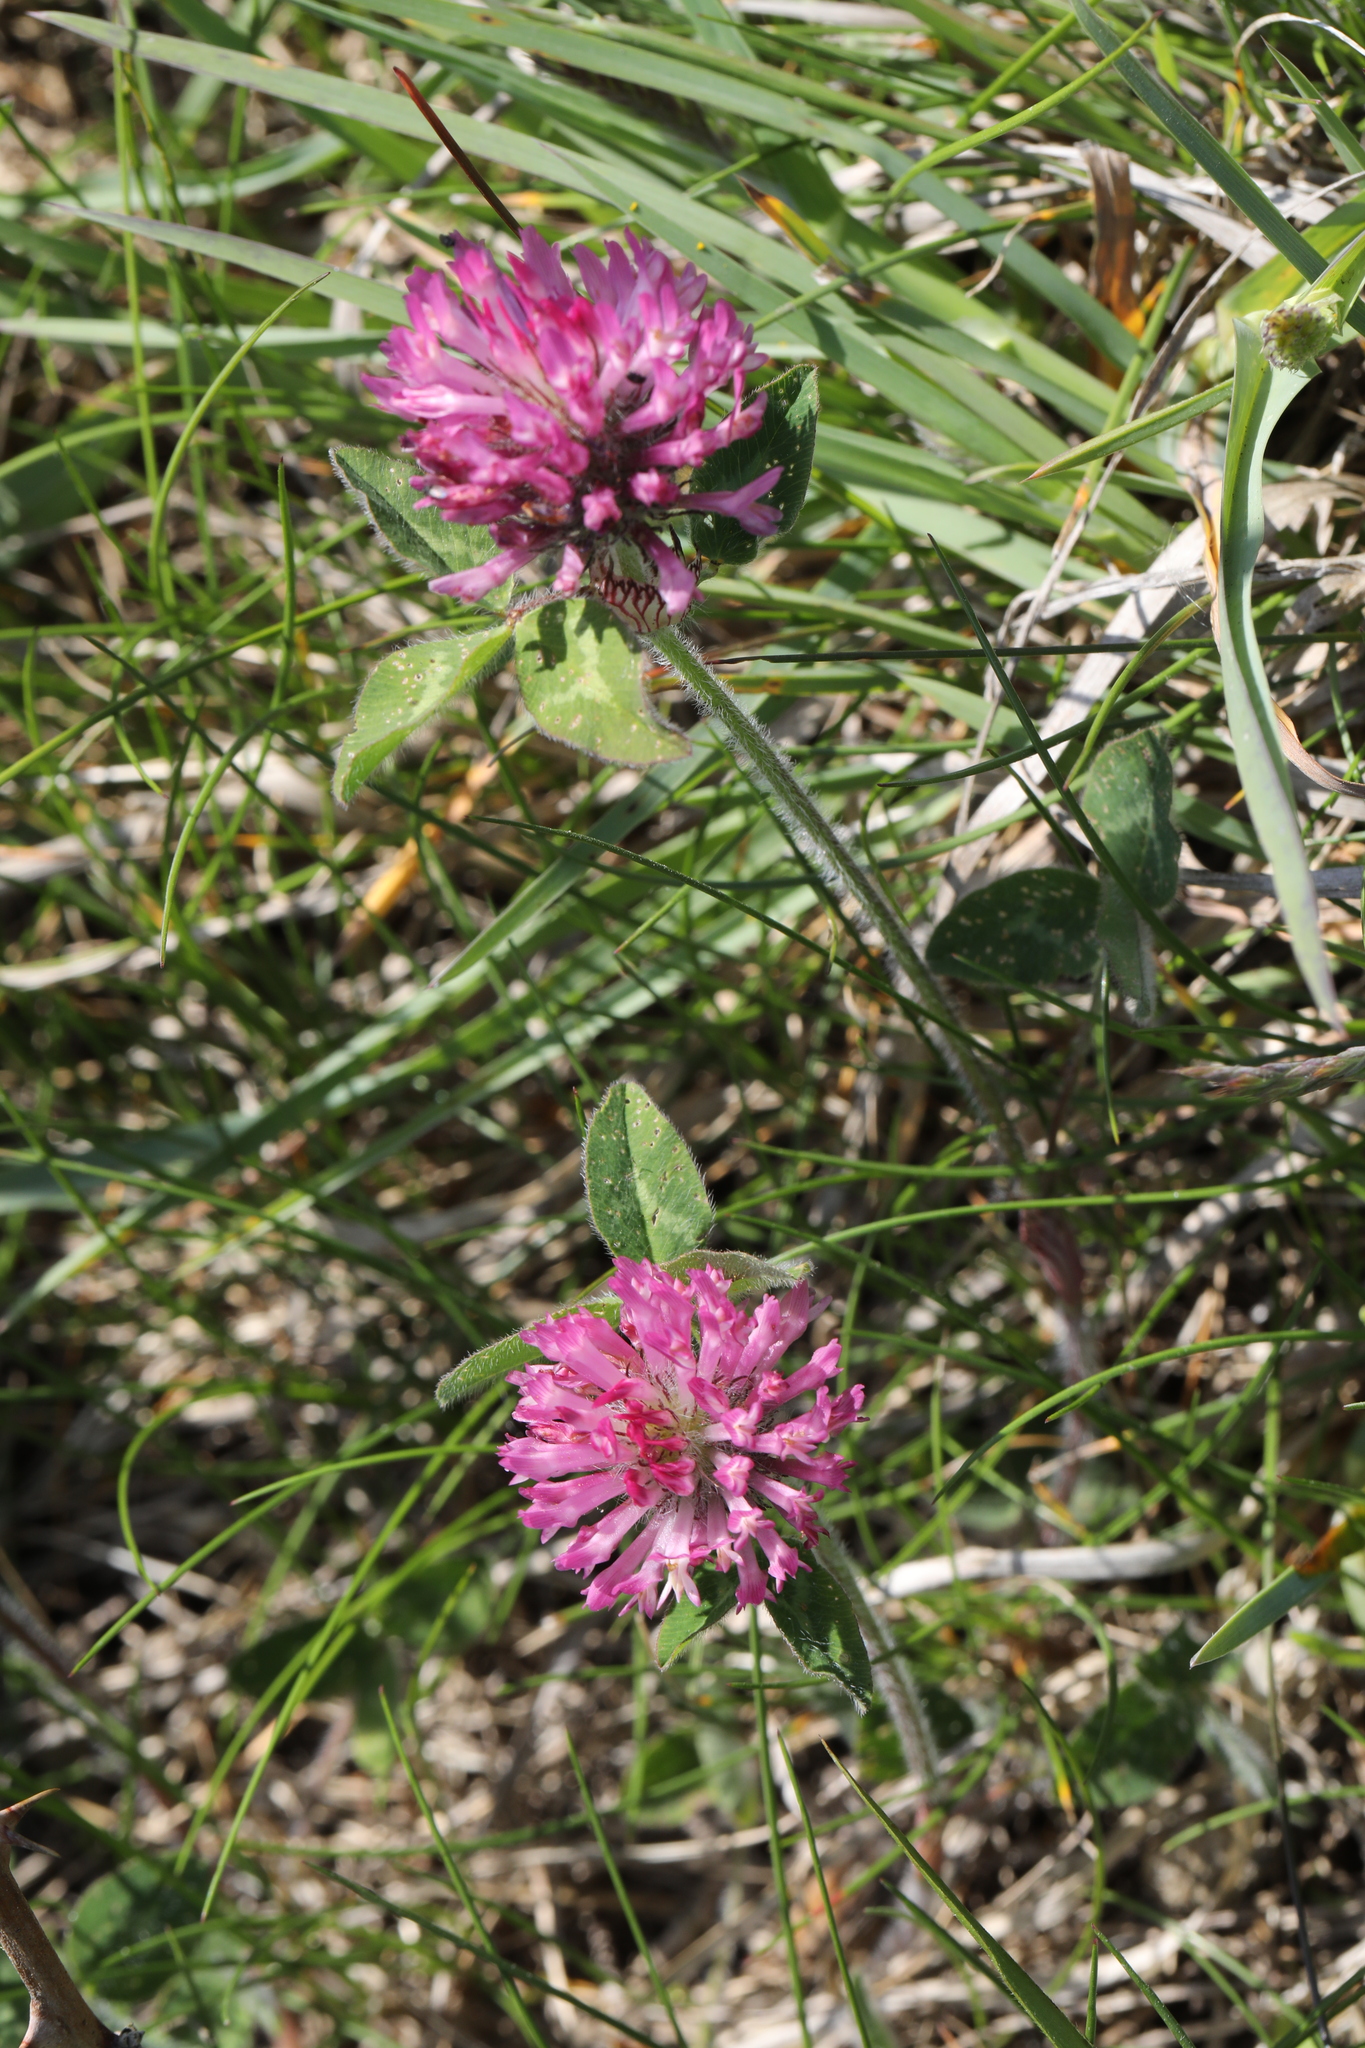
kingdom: Plantae
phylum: Tracheophyta
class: Magnoliopsida
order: Fabales
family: Fabaceae
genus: Trifolium
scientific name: Trifolium pratense
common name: Red clover
